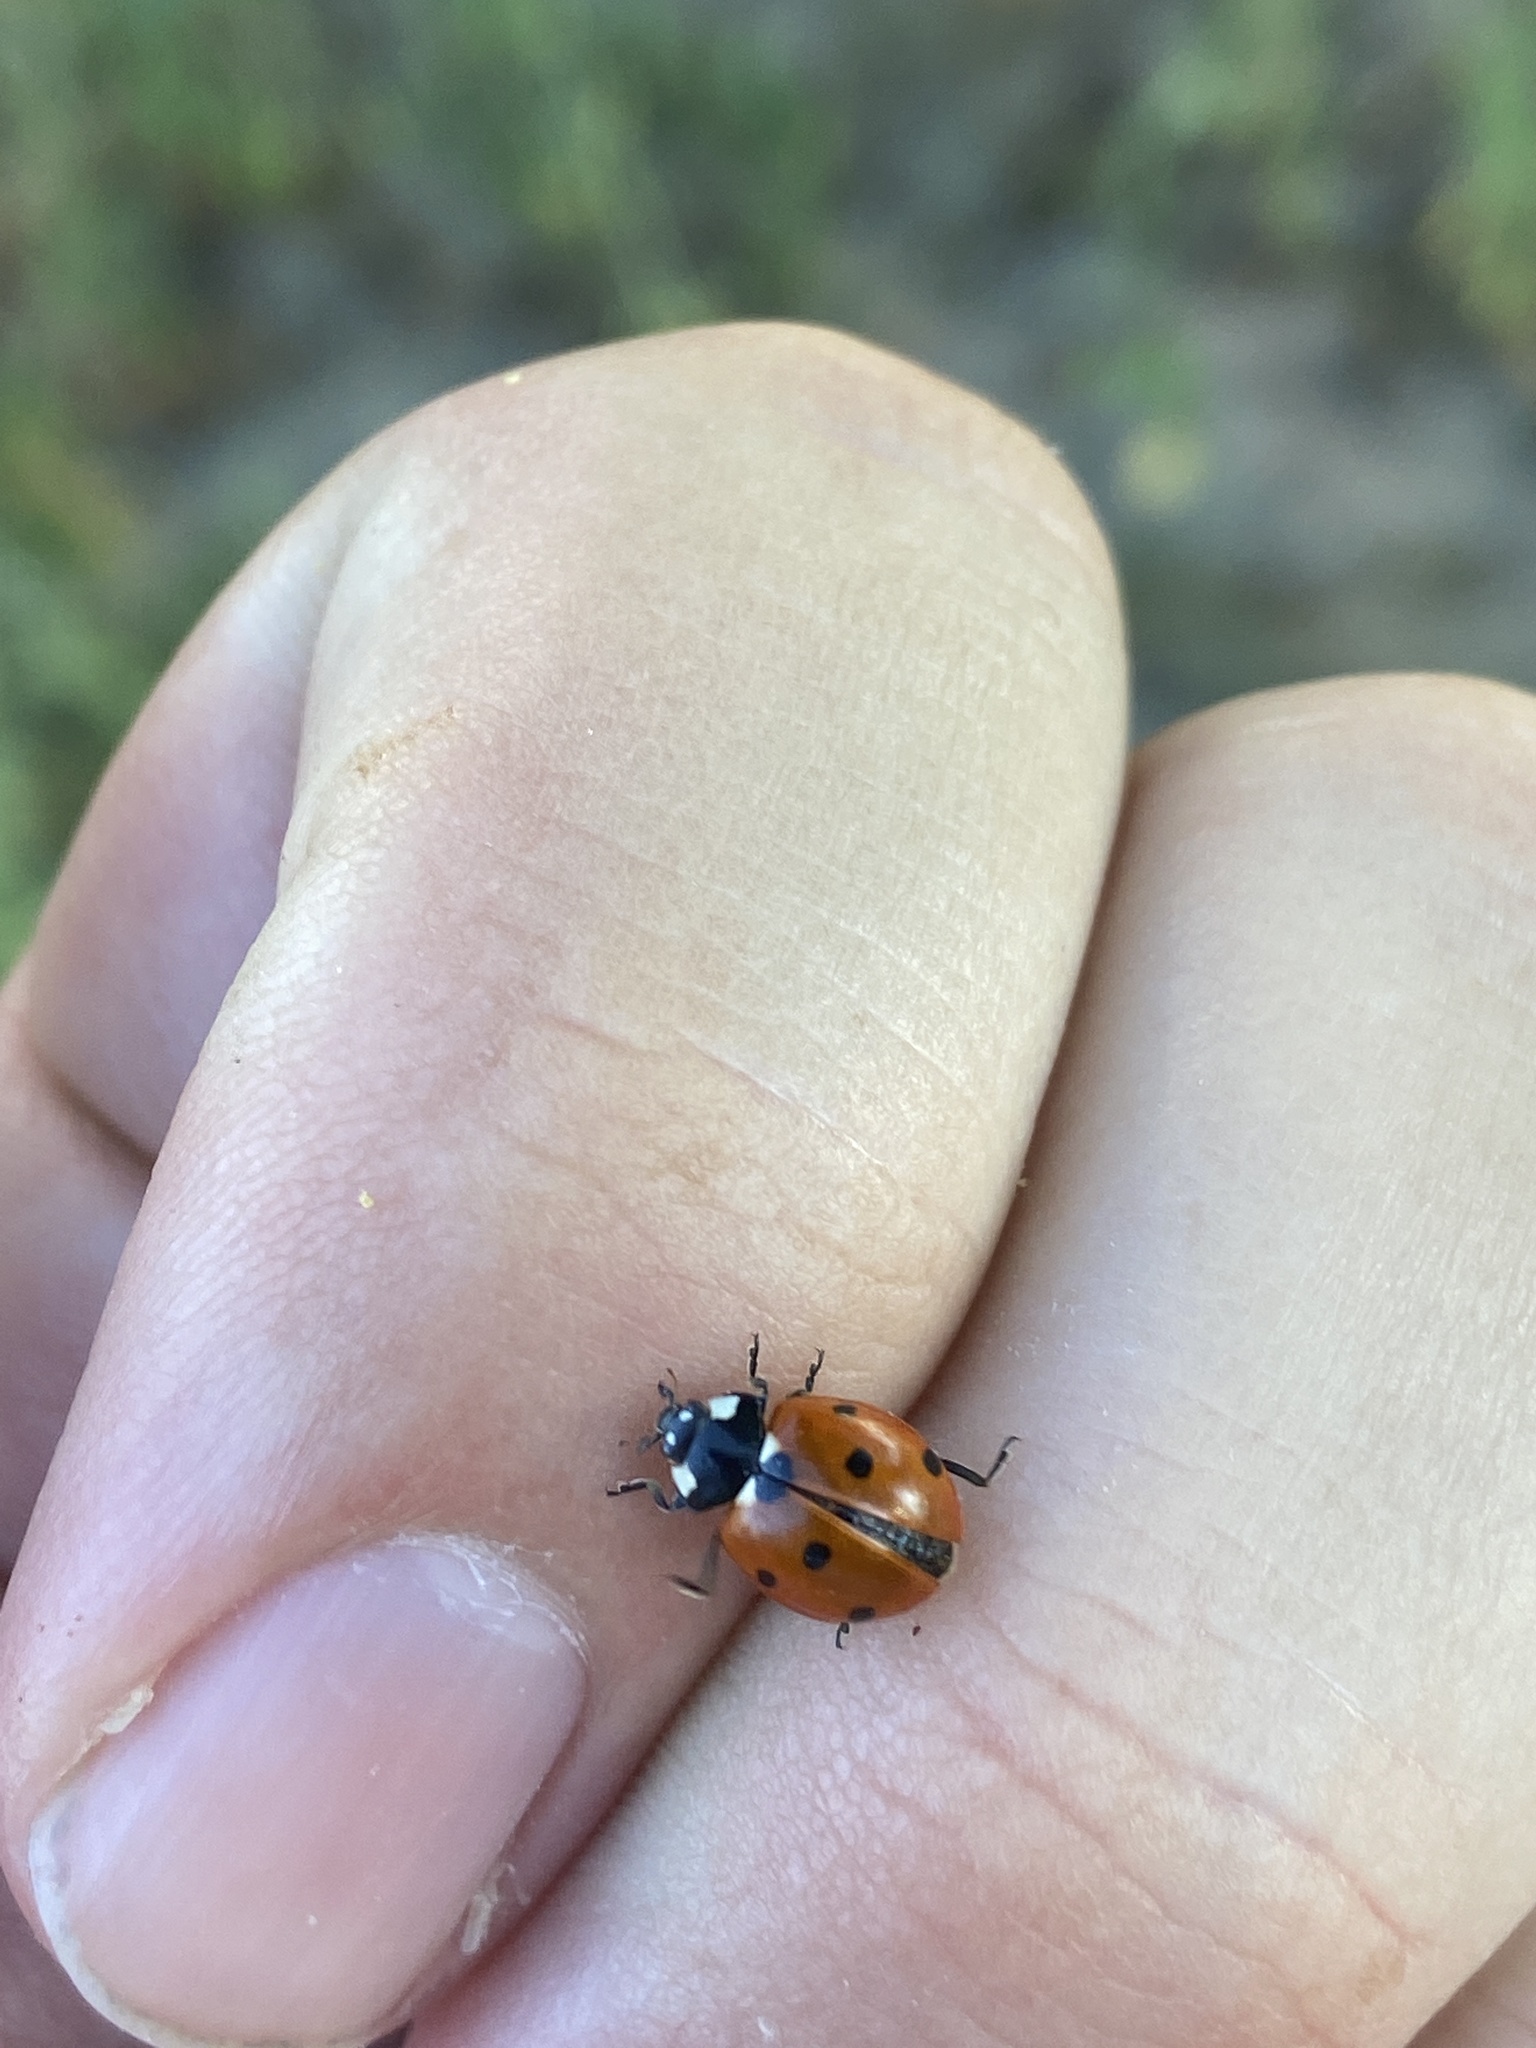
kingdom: Animalia
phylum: Arthropoda
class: Insecta
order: Coleoptera
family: Coccinellidae
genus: Coccinella
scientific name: Coccinella septempunctata
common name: Sevenspotted lady beetle
